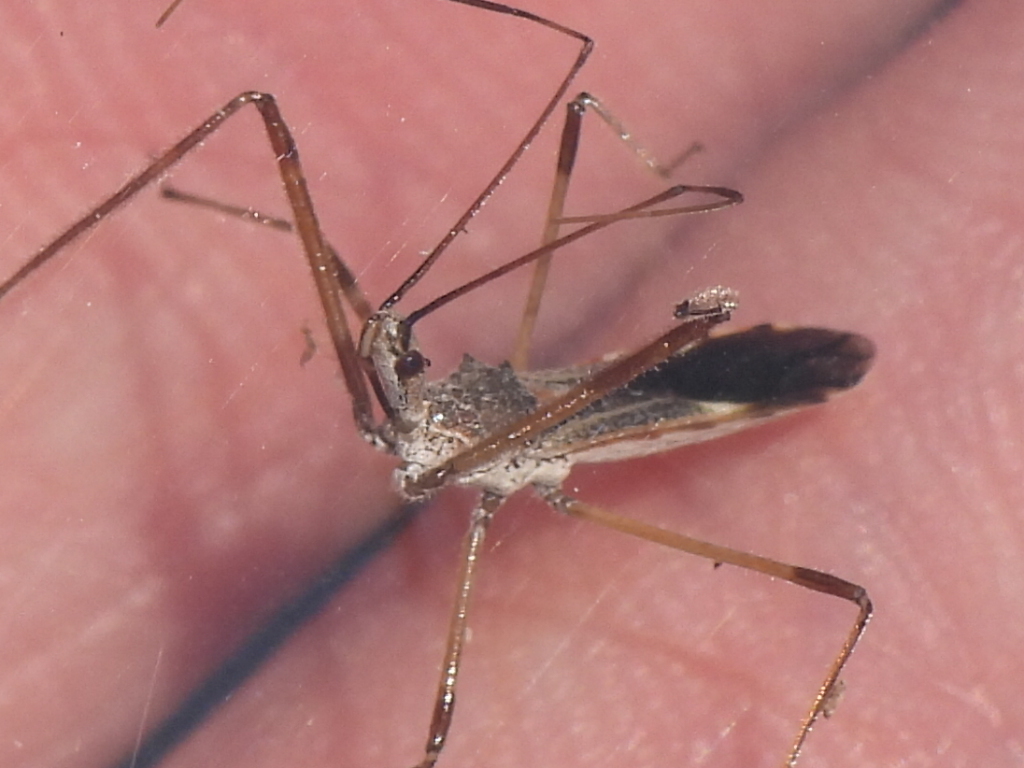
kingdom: Animalia
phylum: Arthropoda
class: Insecta
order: Hemiptera
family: Reduviidae
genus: Zelus
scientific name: Zelus tetracanthus
